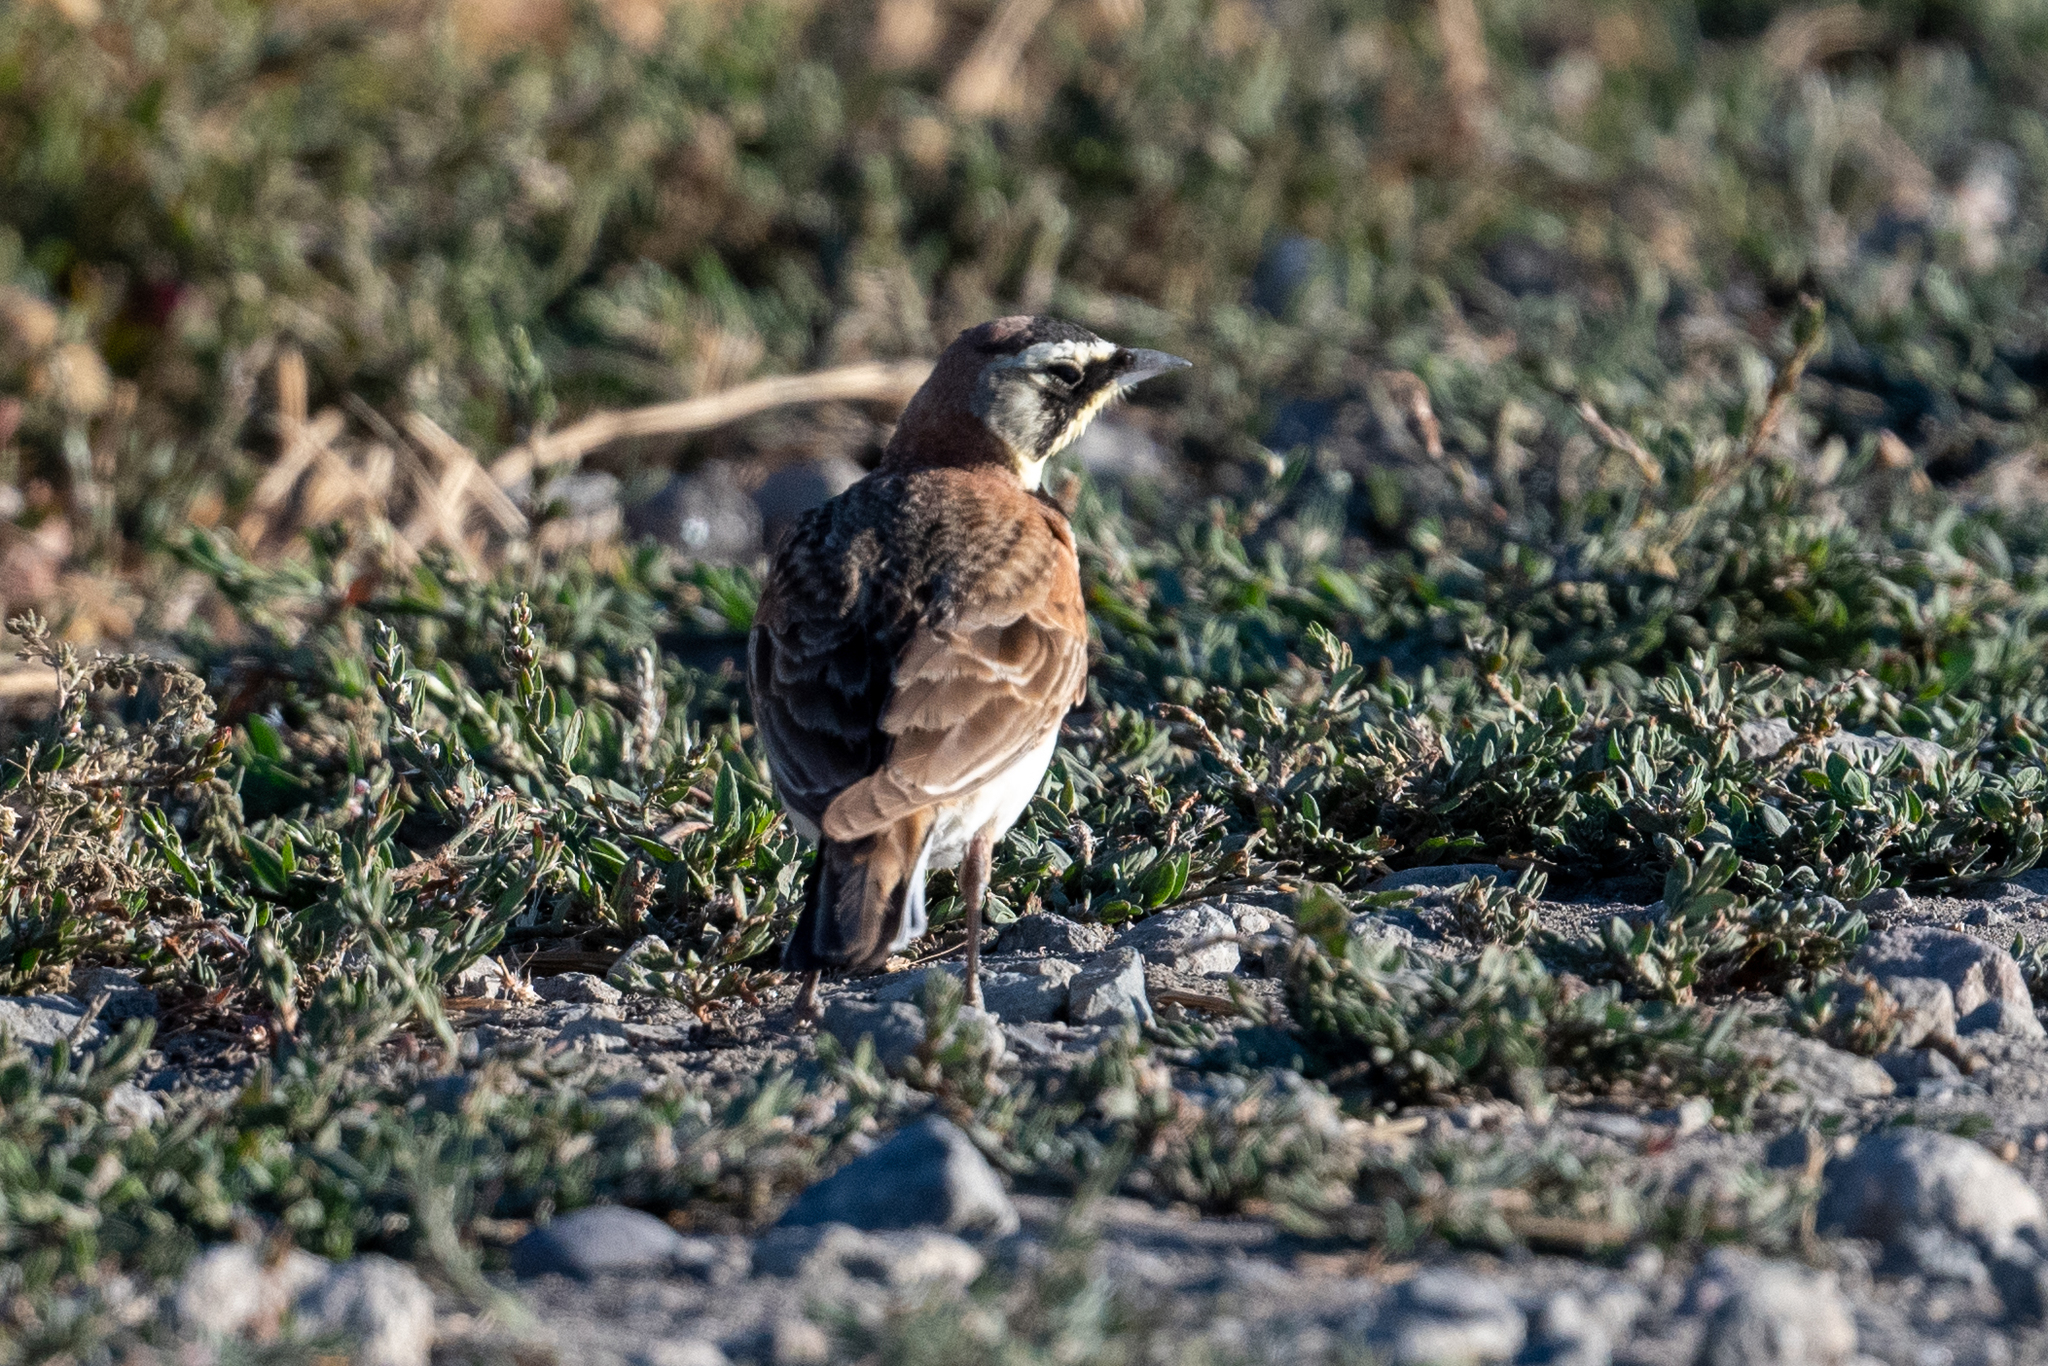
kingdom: Animalia
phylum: Chordata
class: Aves
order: Passeriformes
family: Alaudidae
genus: Eremophila
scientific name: Eremophila alpestris
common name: Horned lark
